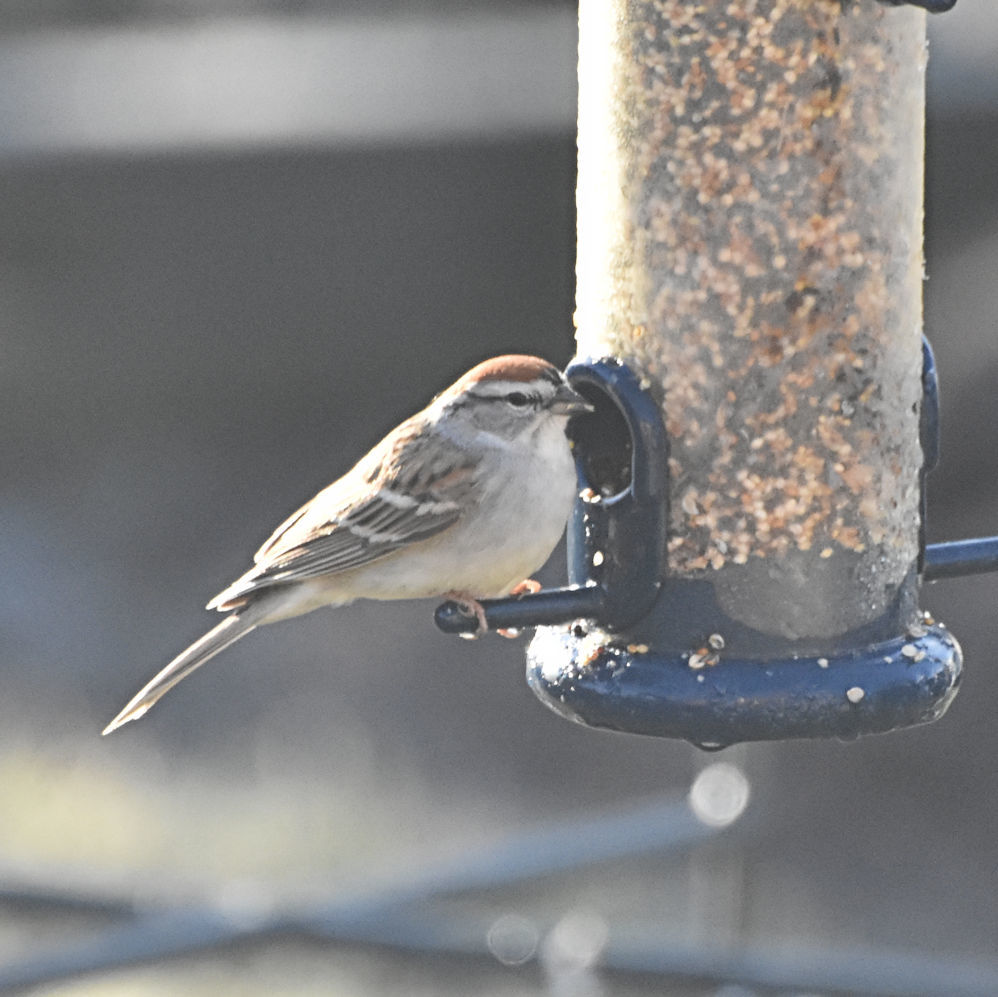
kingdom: Animalia
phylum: Chordata
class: Aves
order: Passeriformes
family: Passerellidae
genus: Spizella
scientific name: Spizella passerina
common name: Chipping sparrow
